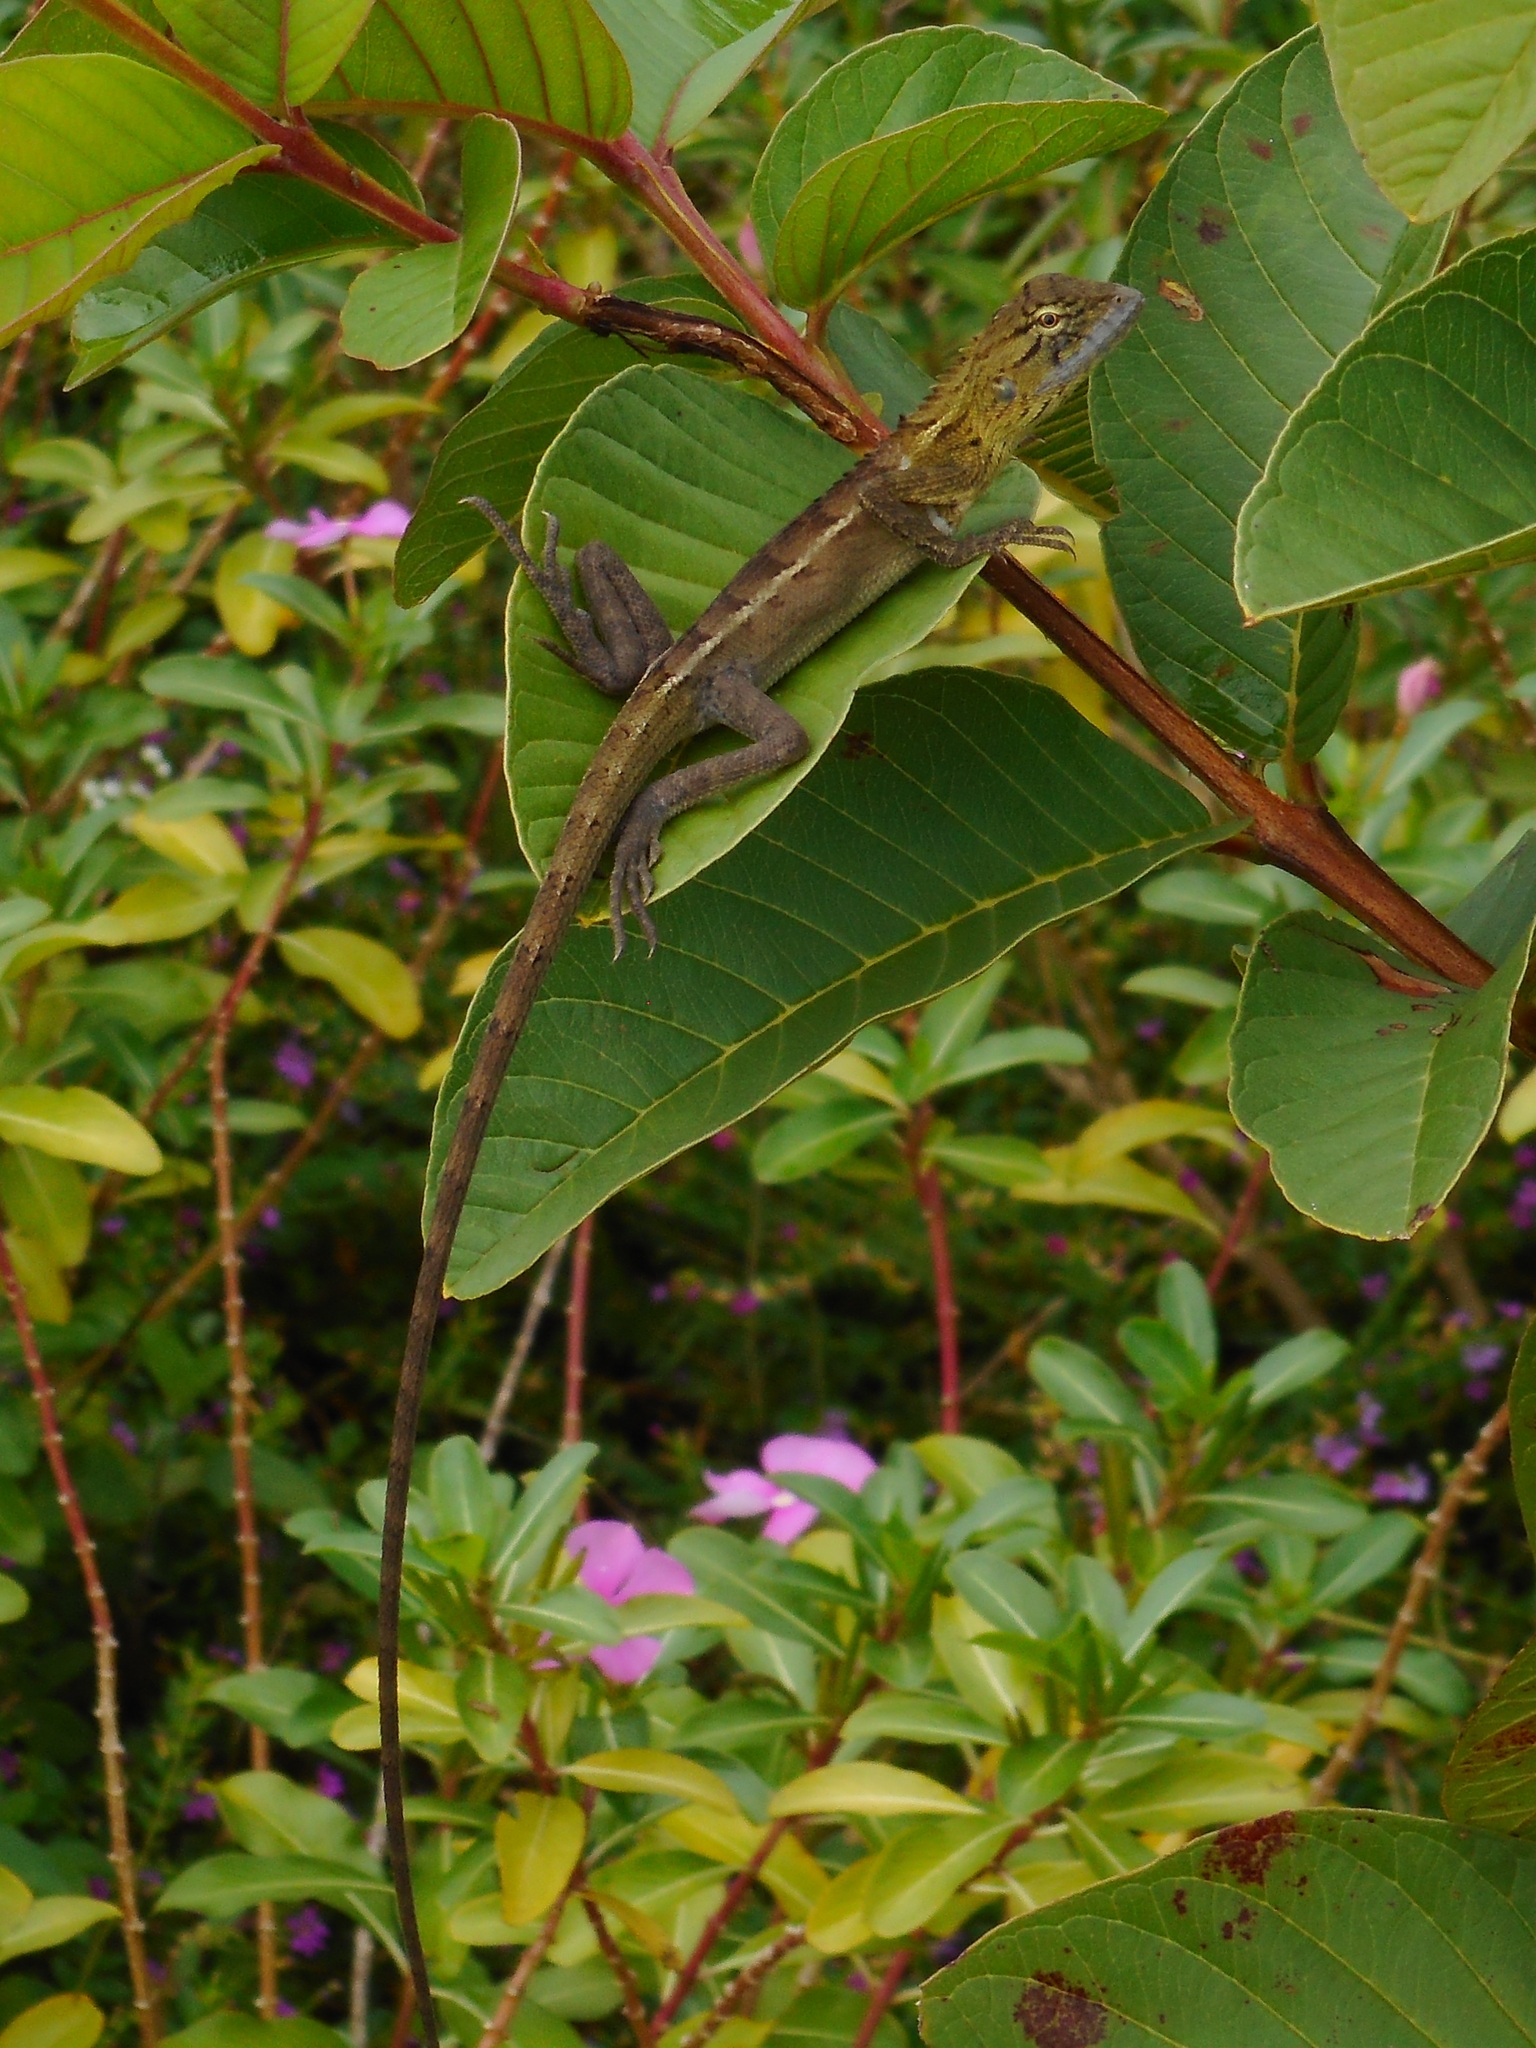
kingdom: Animalia
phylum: Chordata
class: Squamata
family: Agamidae
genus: Calotes
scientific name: Calotes versicolor
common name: Oriental garden lizard
